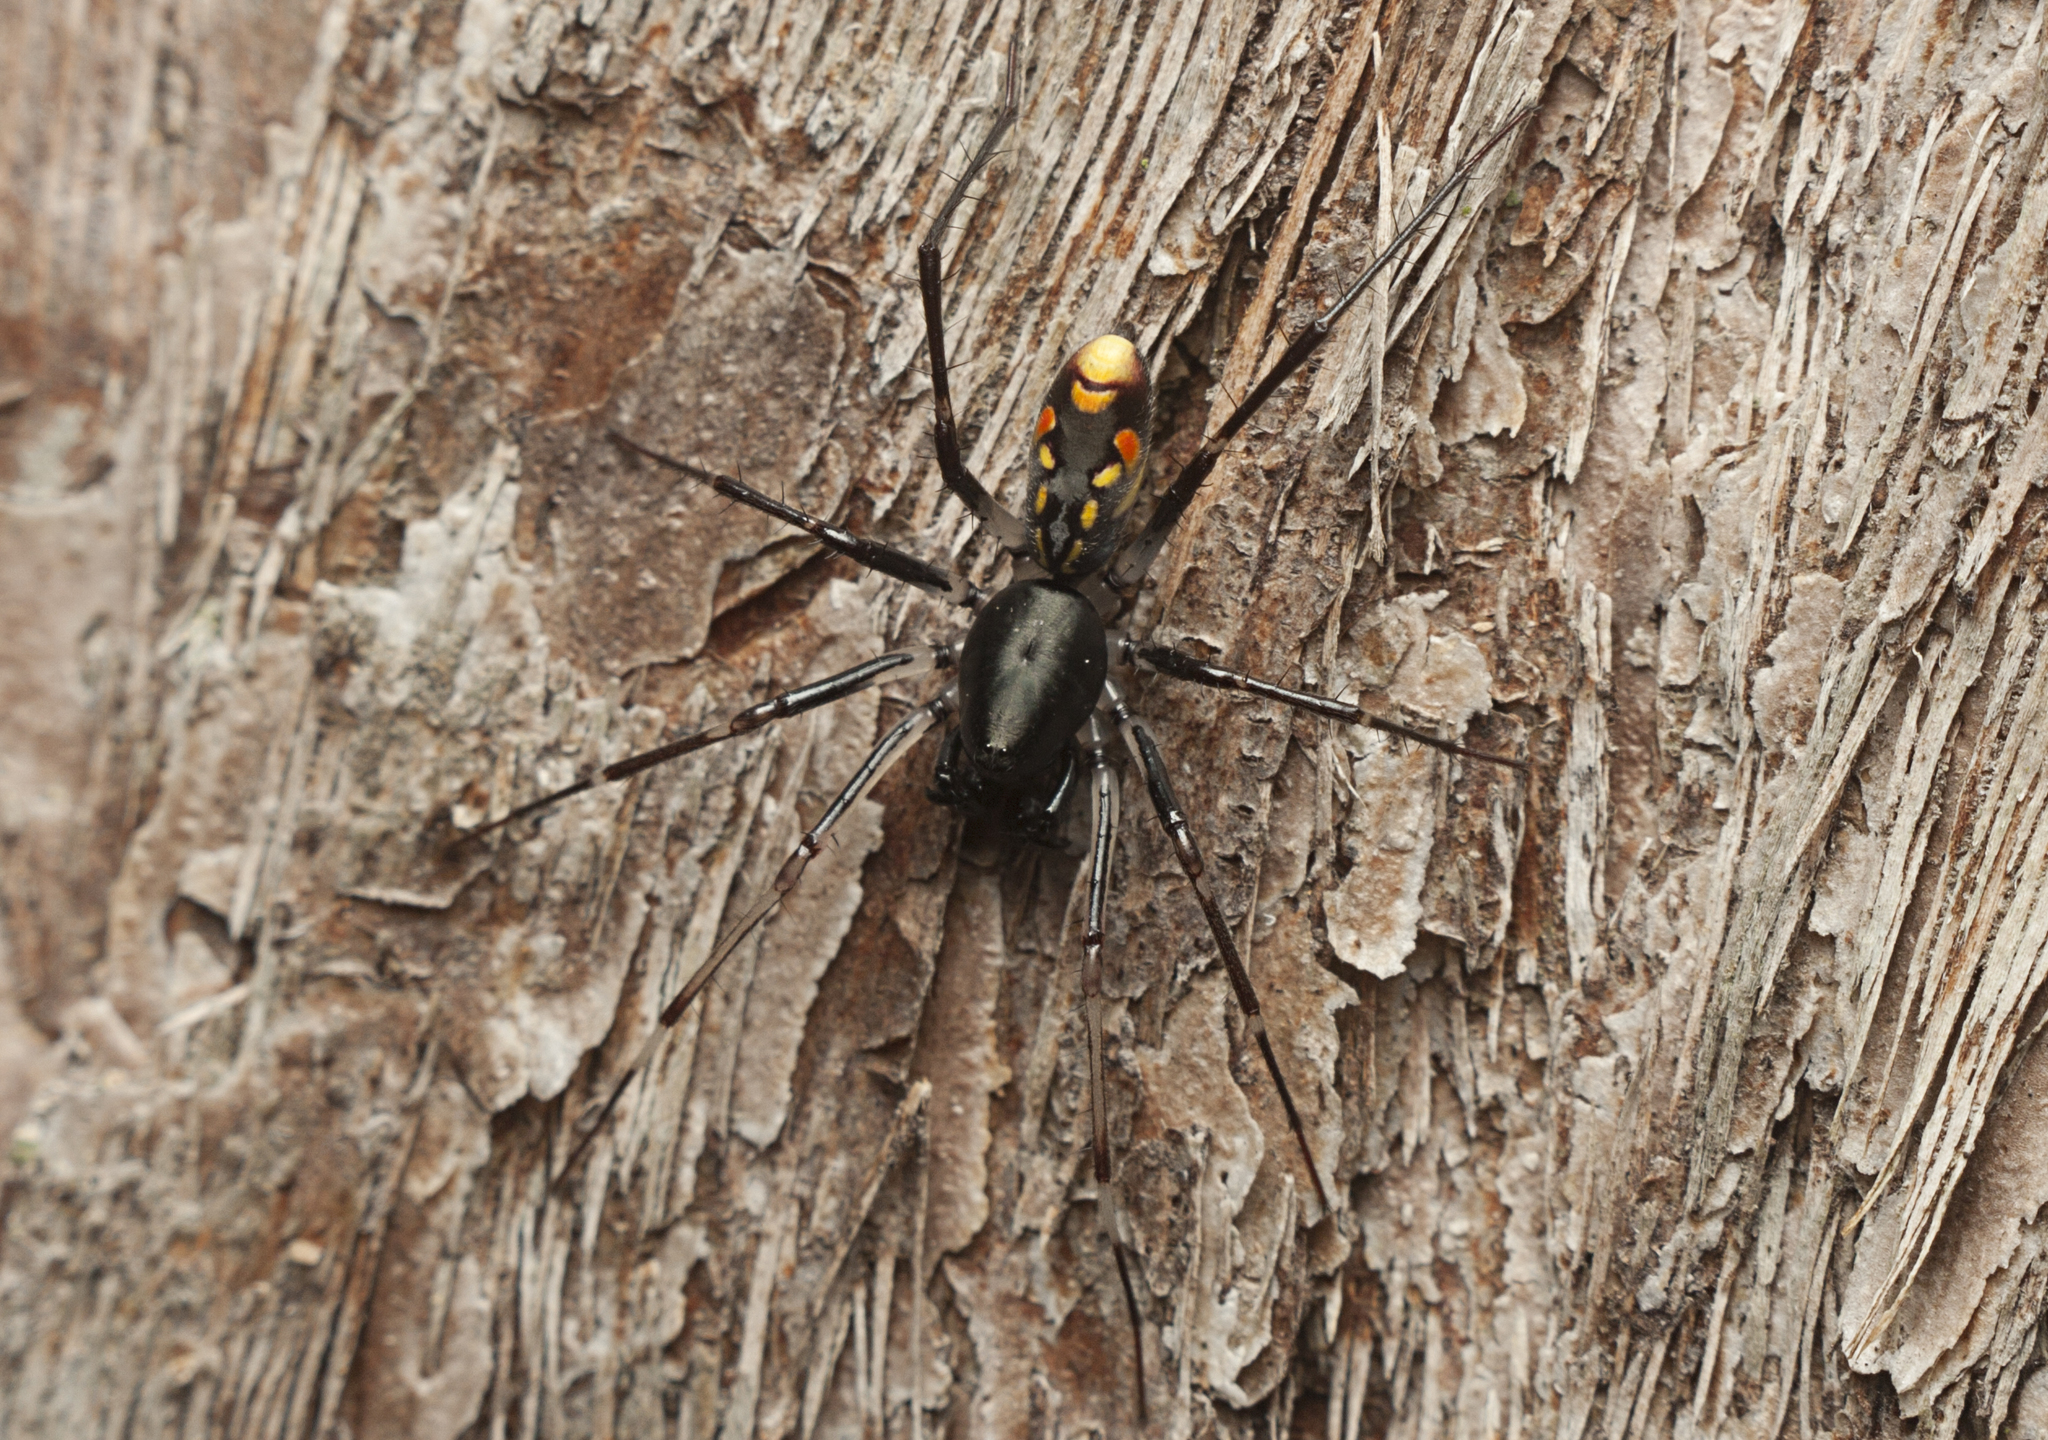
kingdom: Animalia
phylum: Arthropoda
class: Arachnida
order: Araneae
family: Zodariidae
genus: Subasteron
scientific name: Subasteron daviesae
